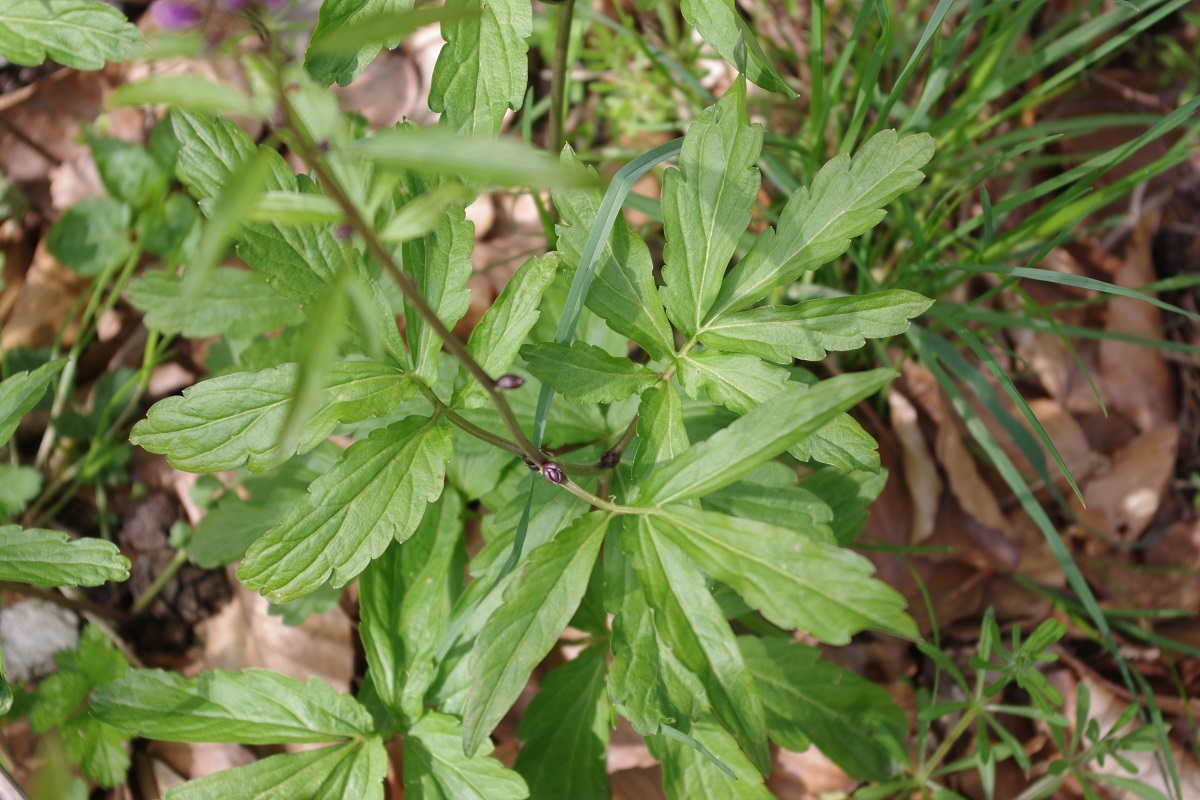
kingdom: Plantae
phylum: Tracheophyta
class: Magnoliopsida
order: Brassicales
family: Brassicaceae
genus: Cardamine
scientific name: Cardamine bulbifera
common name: Coralroot bittercress
